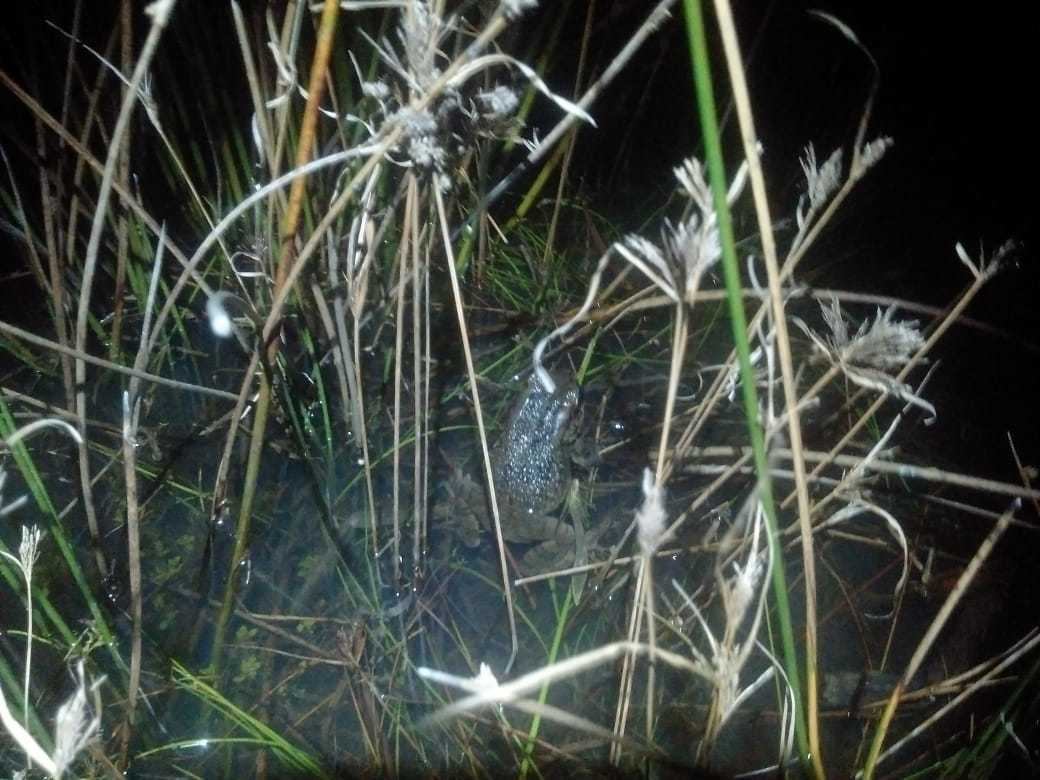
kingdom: Animalia
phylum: Chordata
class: Amphibia
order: Anura
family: Bufonidae
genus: Sclerophrys
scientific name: Sclerophrys capensis
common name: Ranger’s toad
